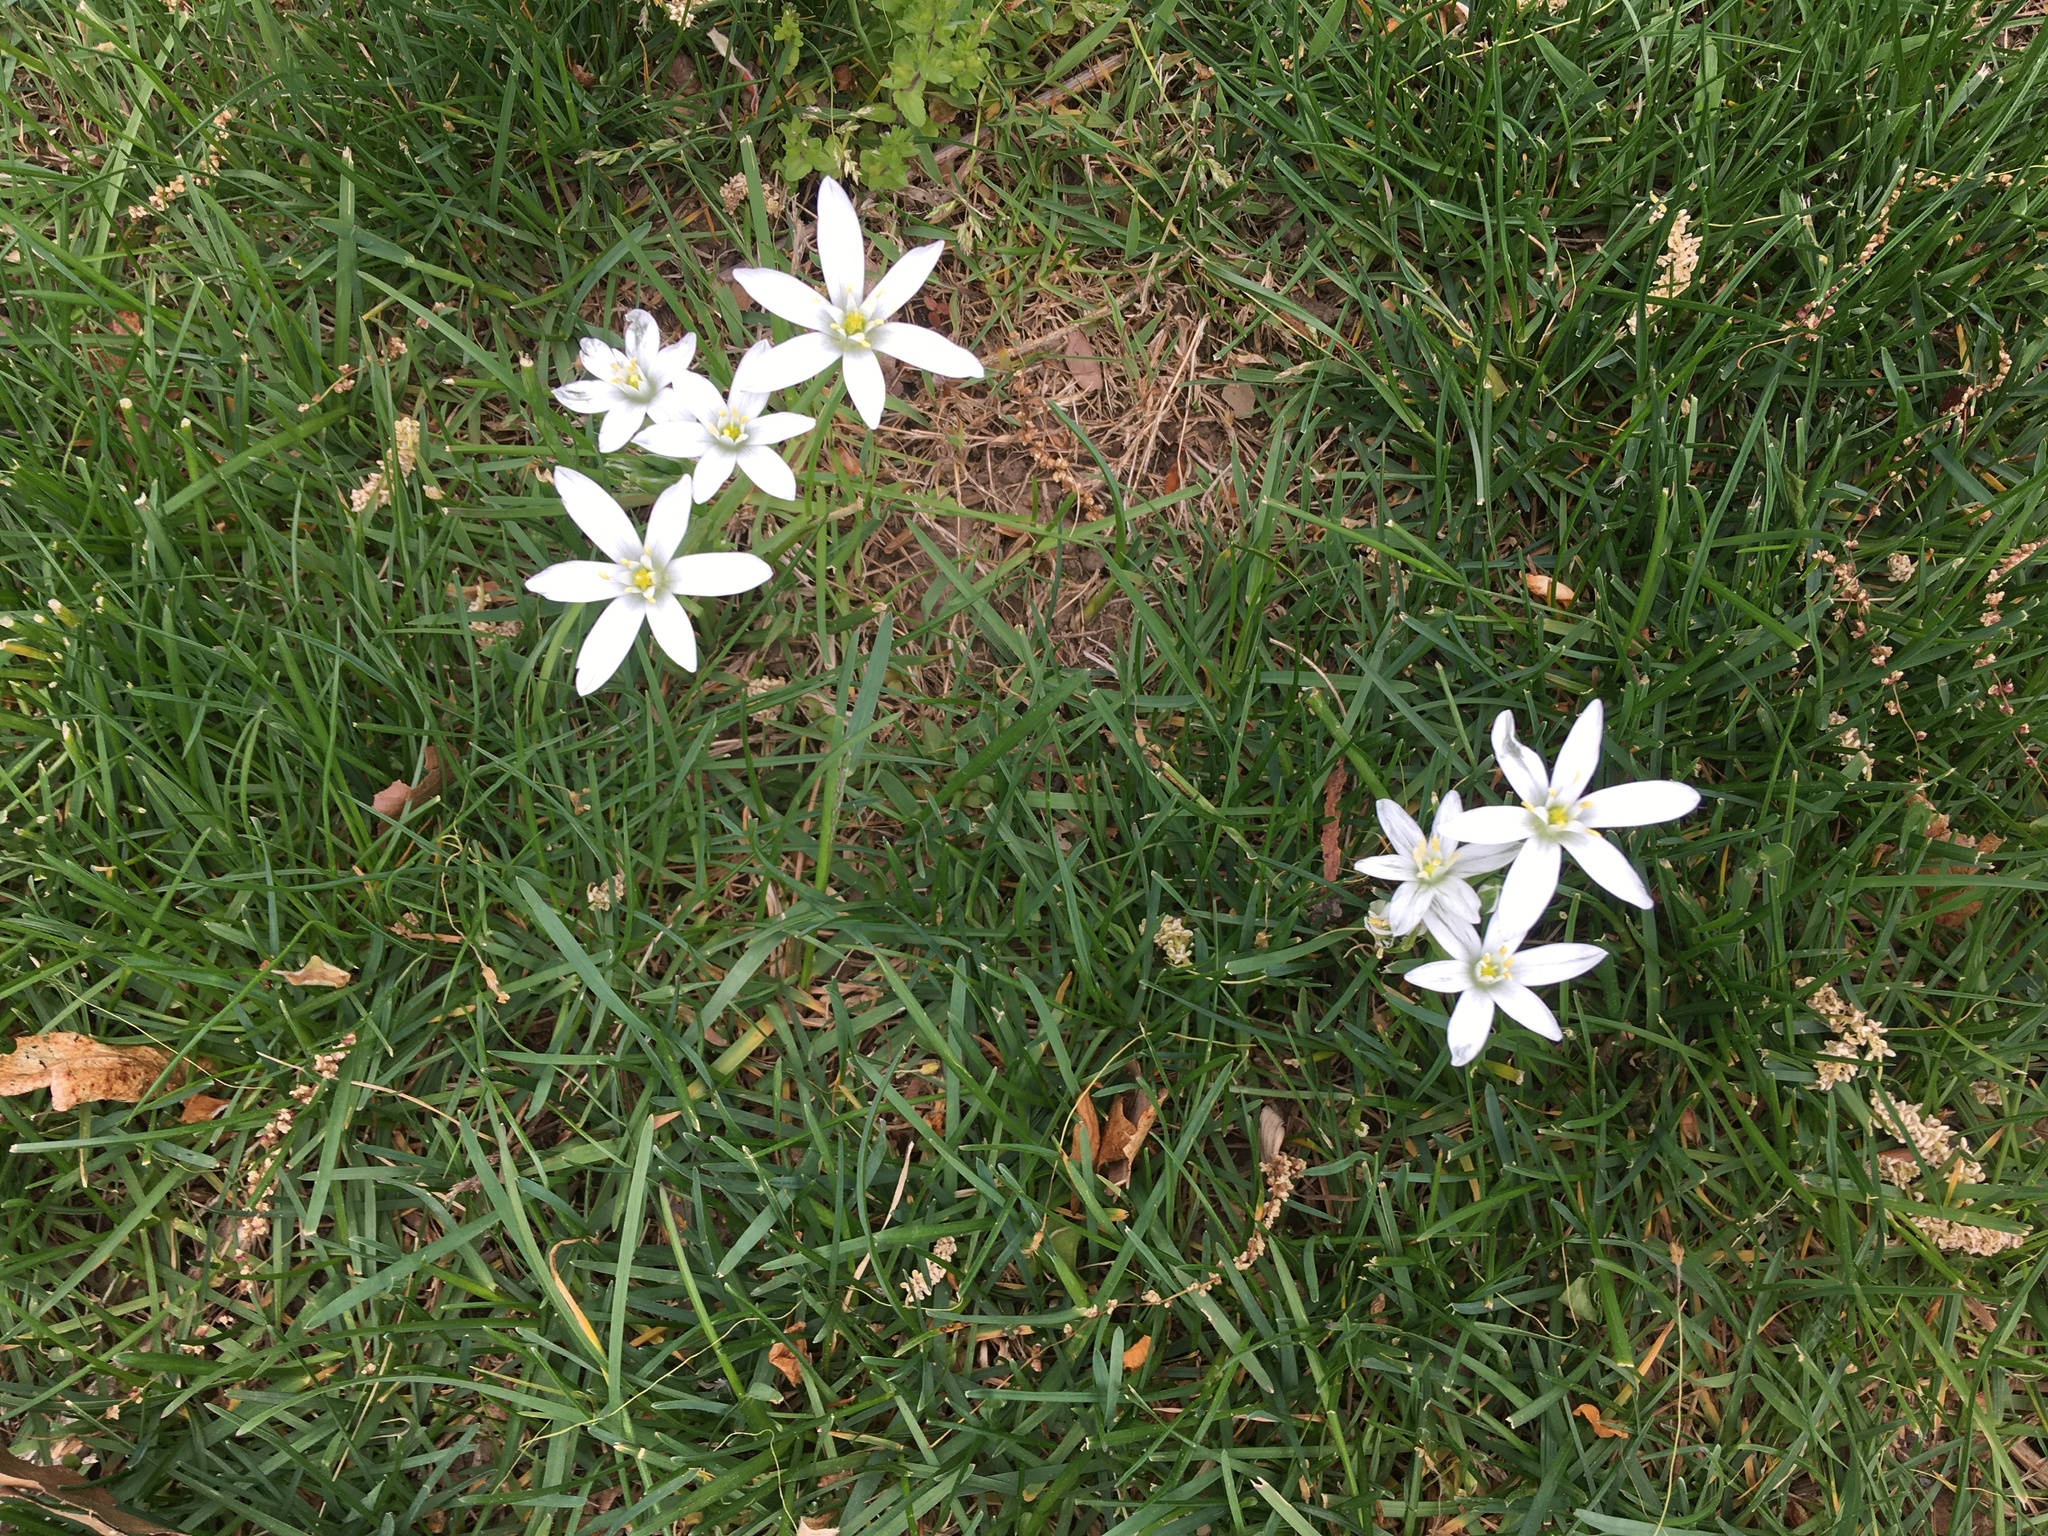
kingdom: Plantae
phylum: Tracheophyta
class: Liliopsida
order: Asparagales
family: Asparagaceae
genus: Ornithogalum
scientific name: Ornithogalum umbellatum
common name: Garden star-of-bethlehem
